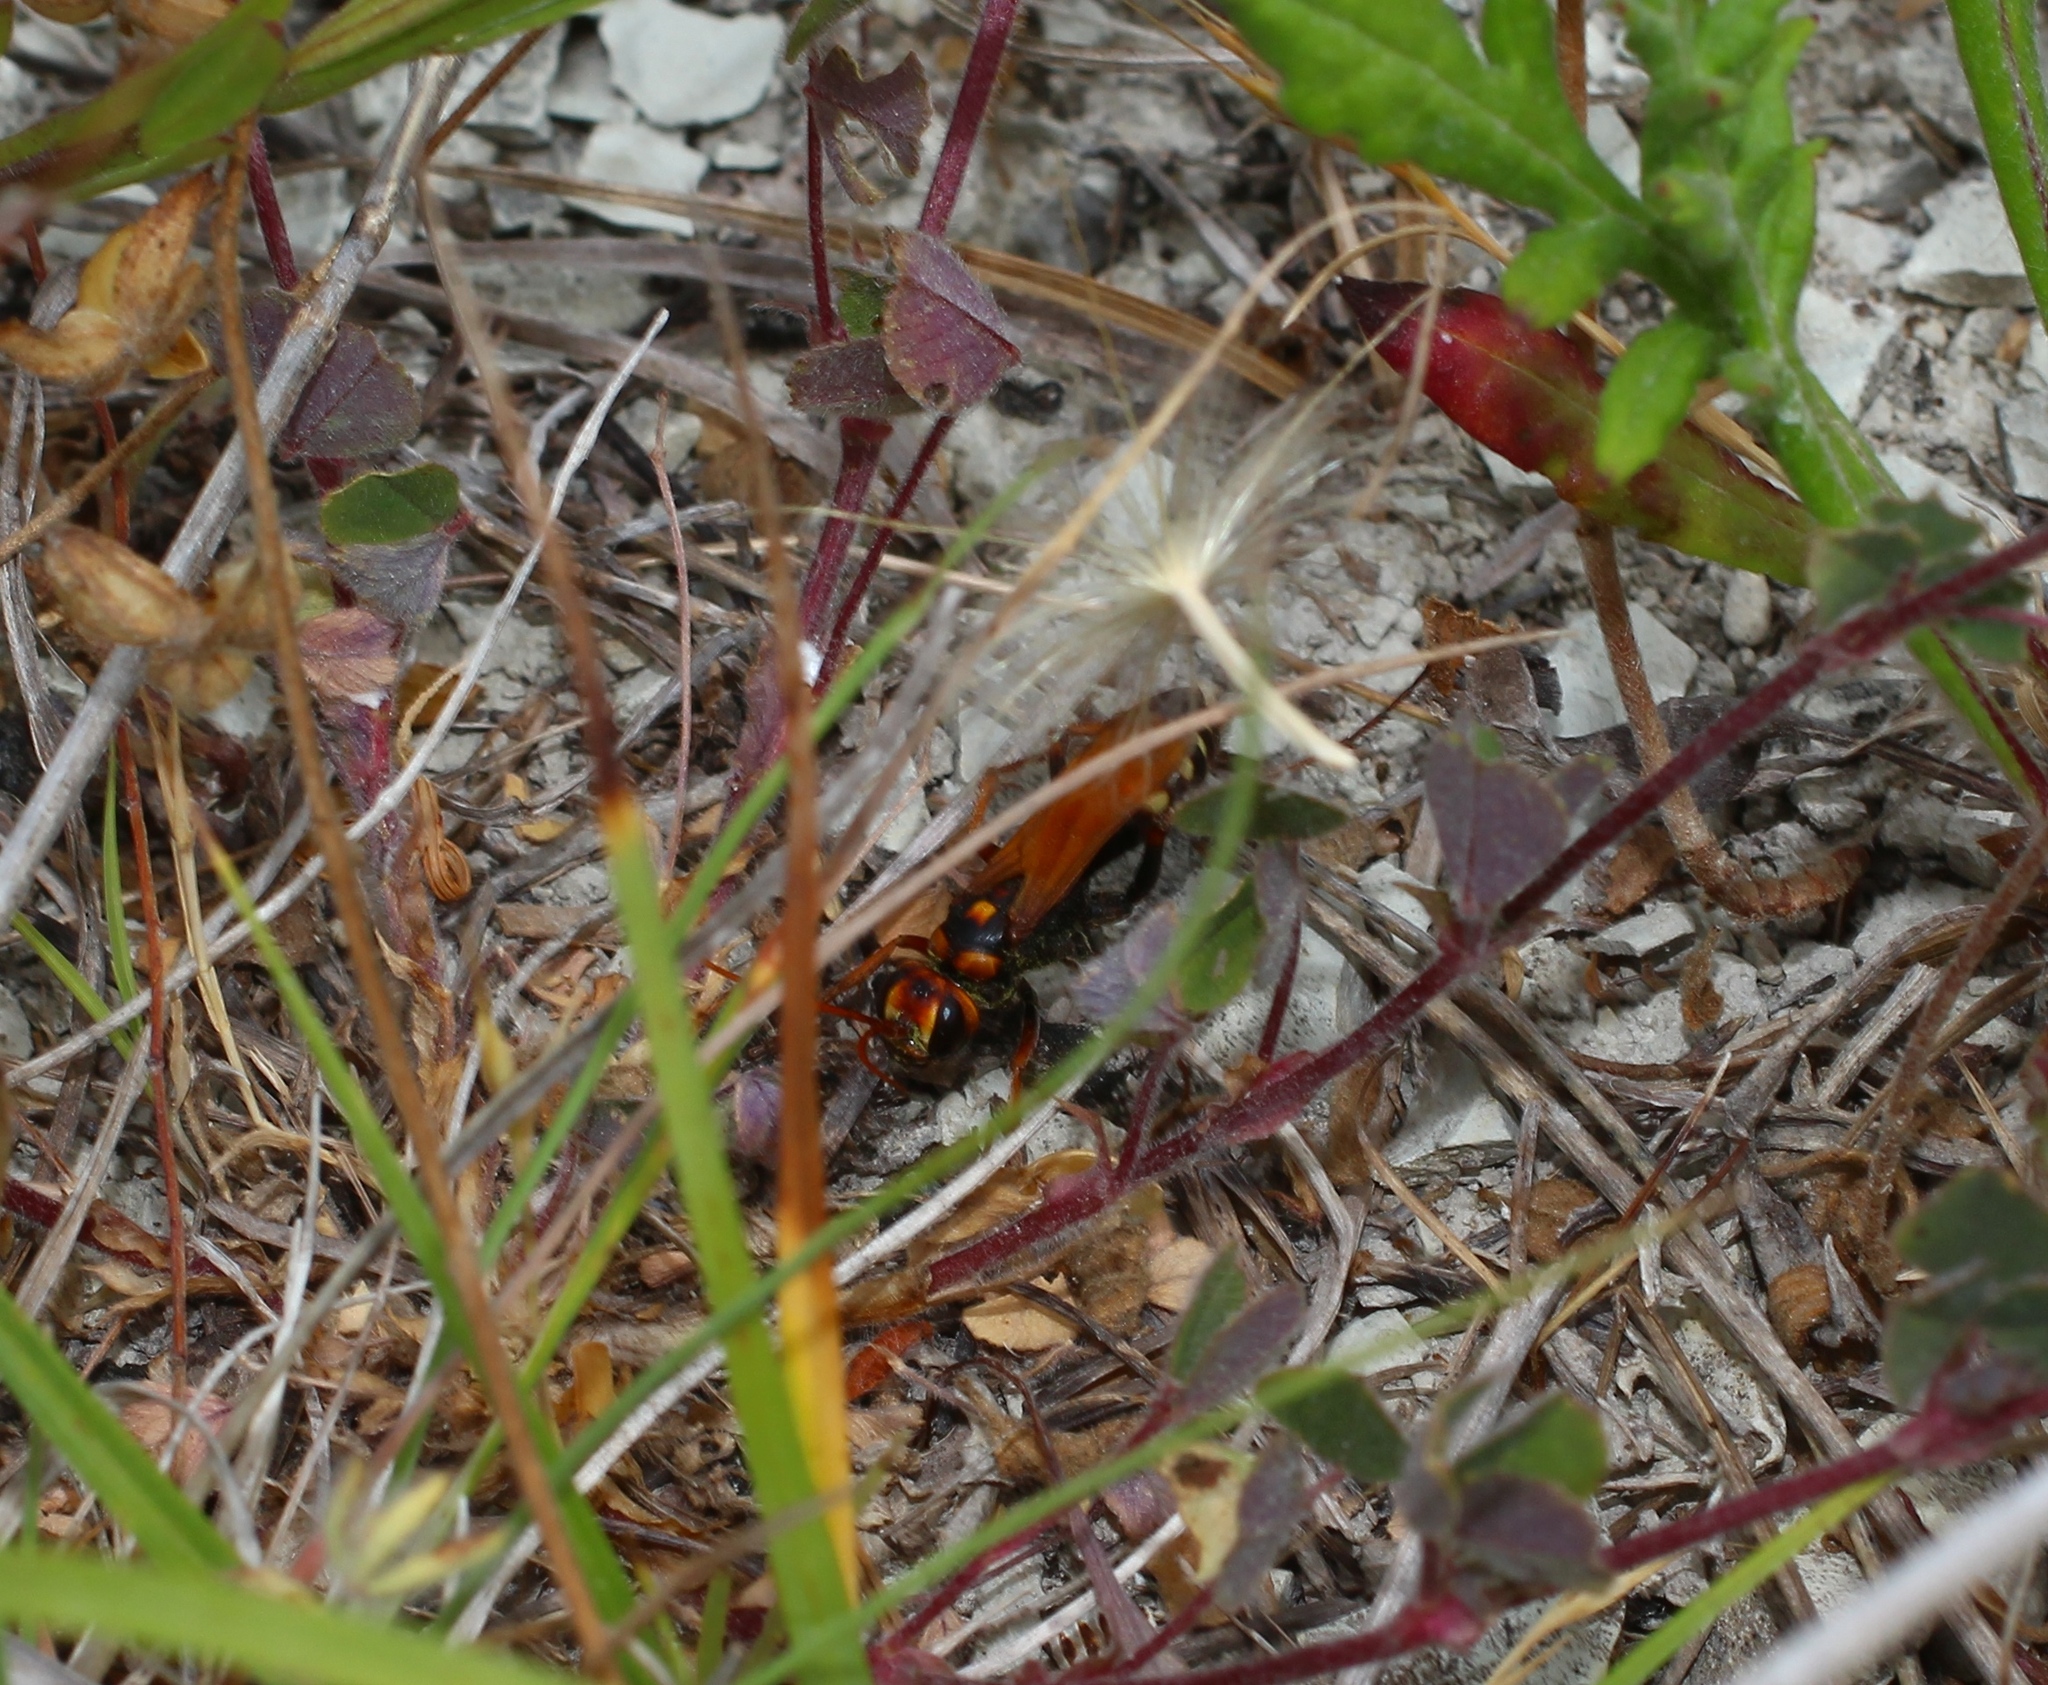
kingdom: Animalia
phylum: Arthropoda
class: Insecta
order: Hymenoptera
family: Pompilidae
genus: Cryptocheilus
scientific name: Cryptocheilus octomaculatus
